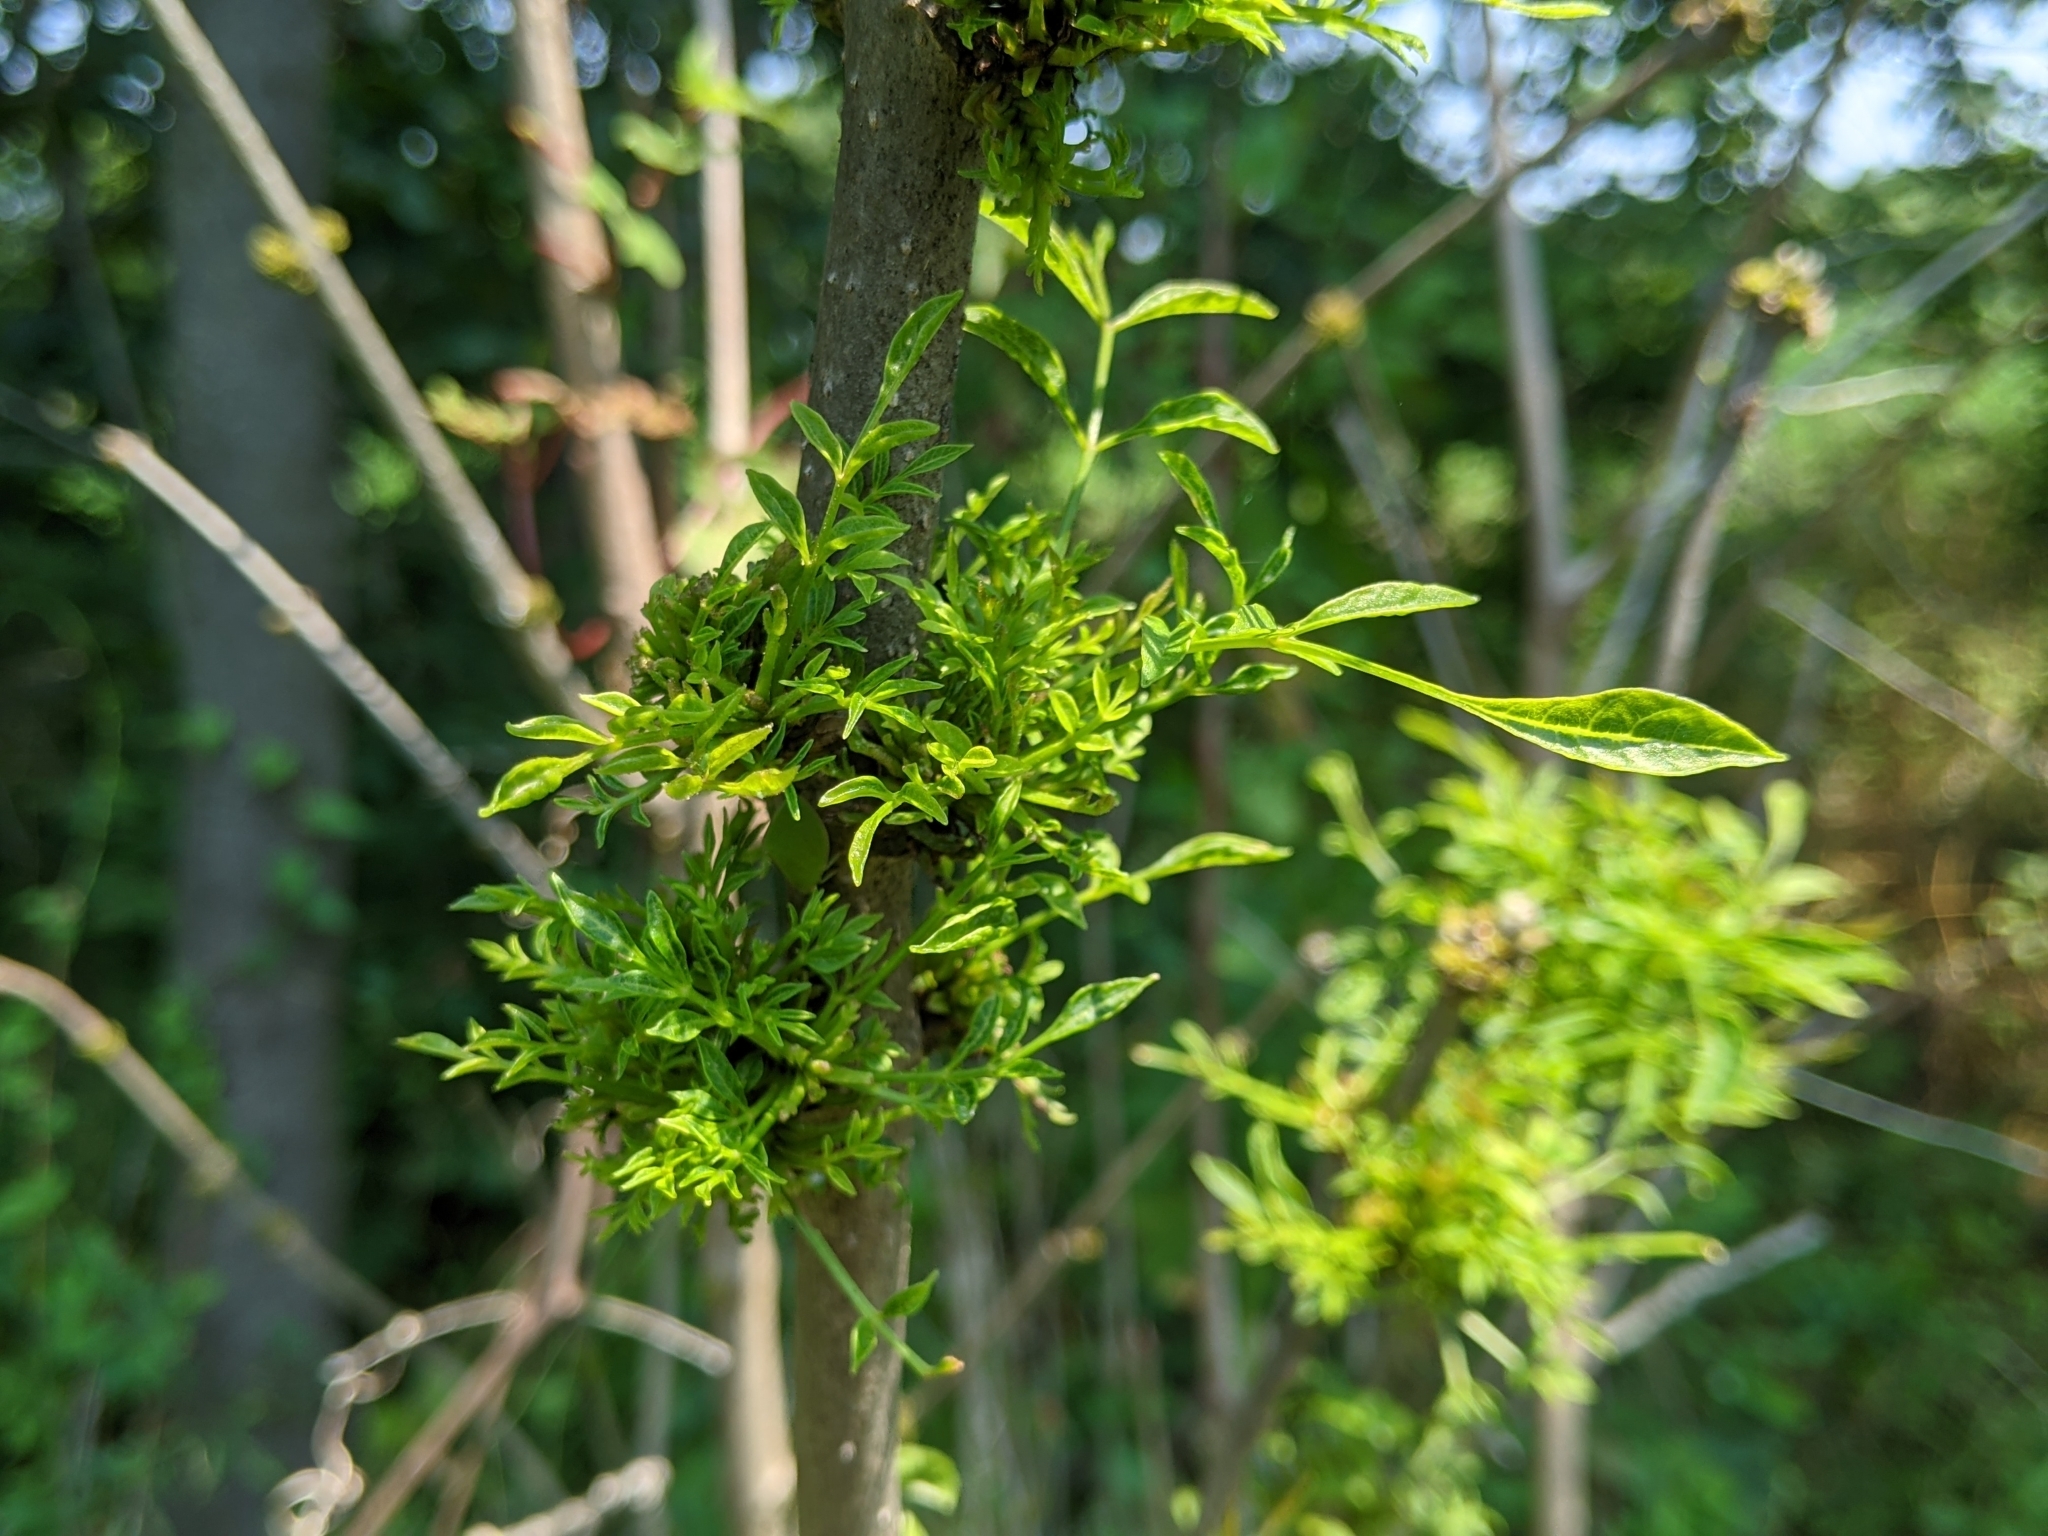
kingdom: Bacteria
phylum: Firmicutes
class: Bacilli
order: Acholeplasmatales
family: Acholeplasmataceae
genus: Phytoplasma
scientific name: Phytoplasma
